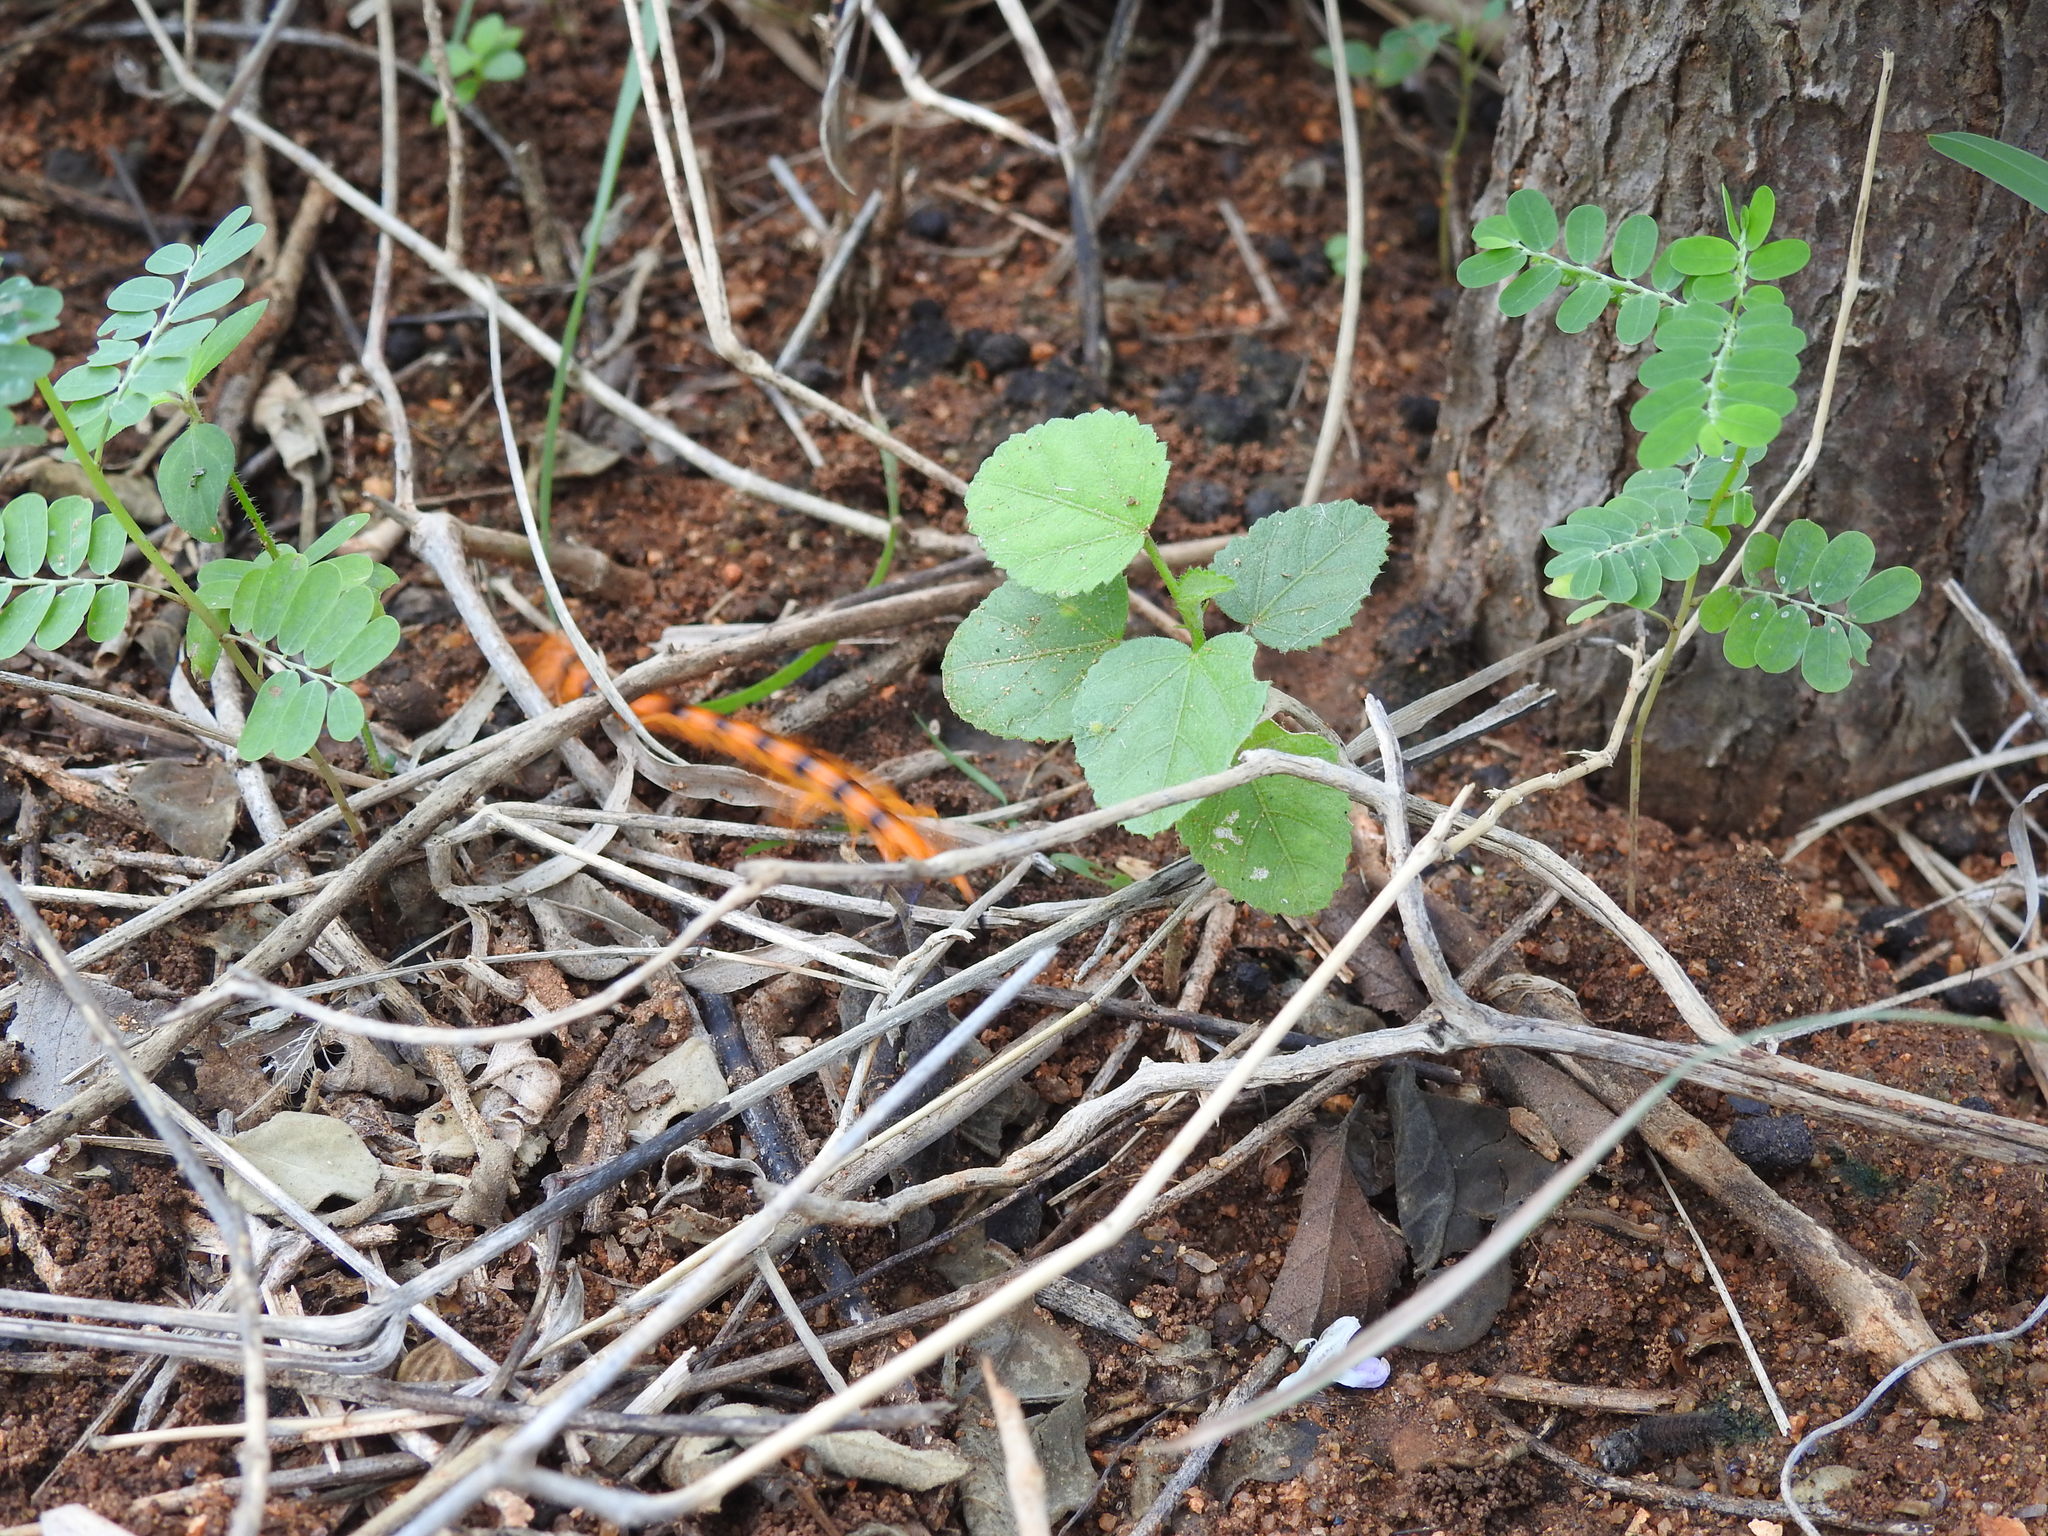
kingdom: Animalia
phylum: Arthropoda
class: Chilopoda
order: Scolopendromorpha
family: Scolopendridae
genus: Scolopendra
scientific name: Scolopendra hardwickei
